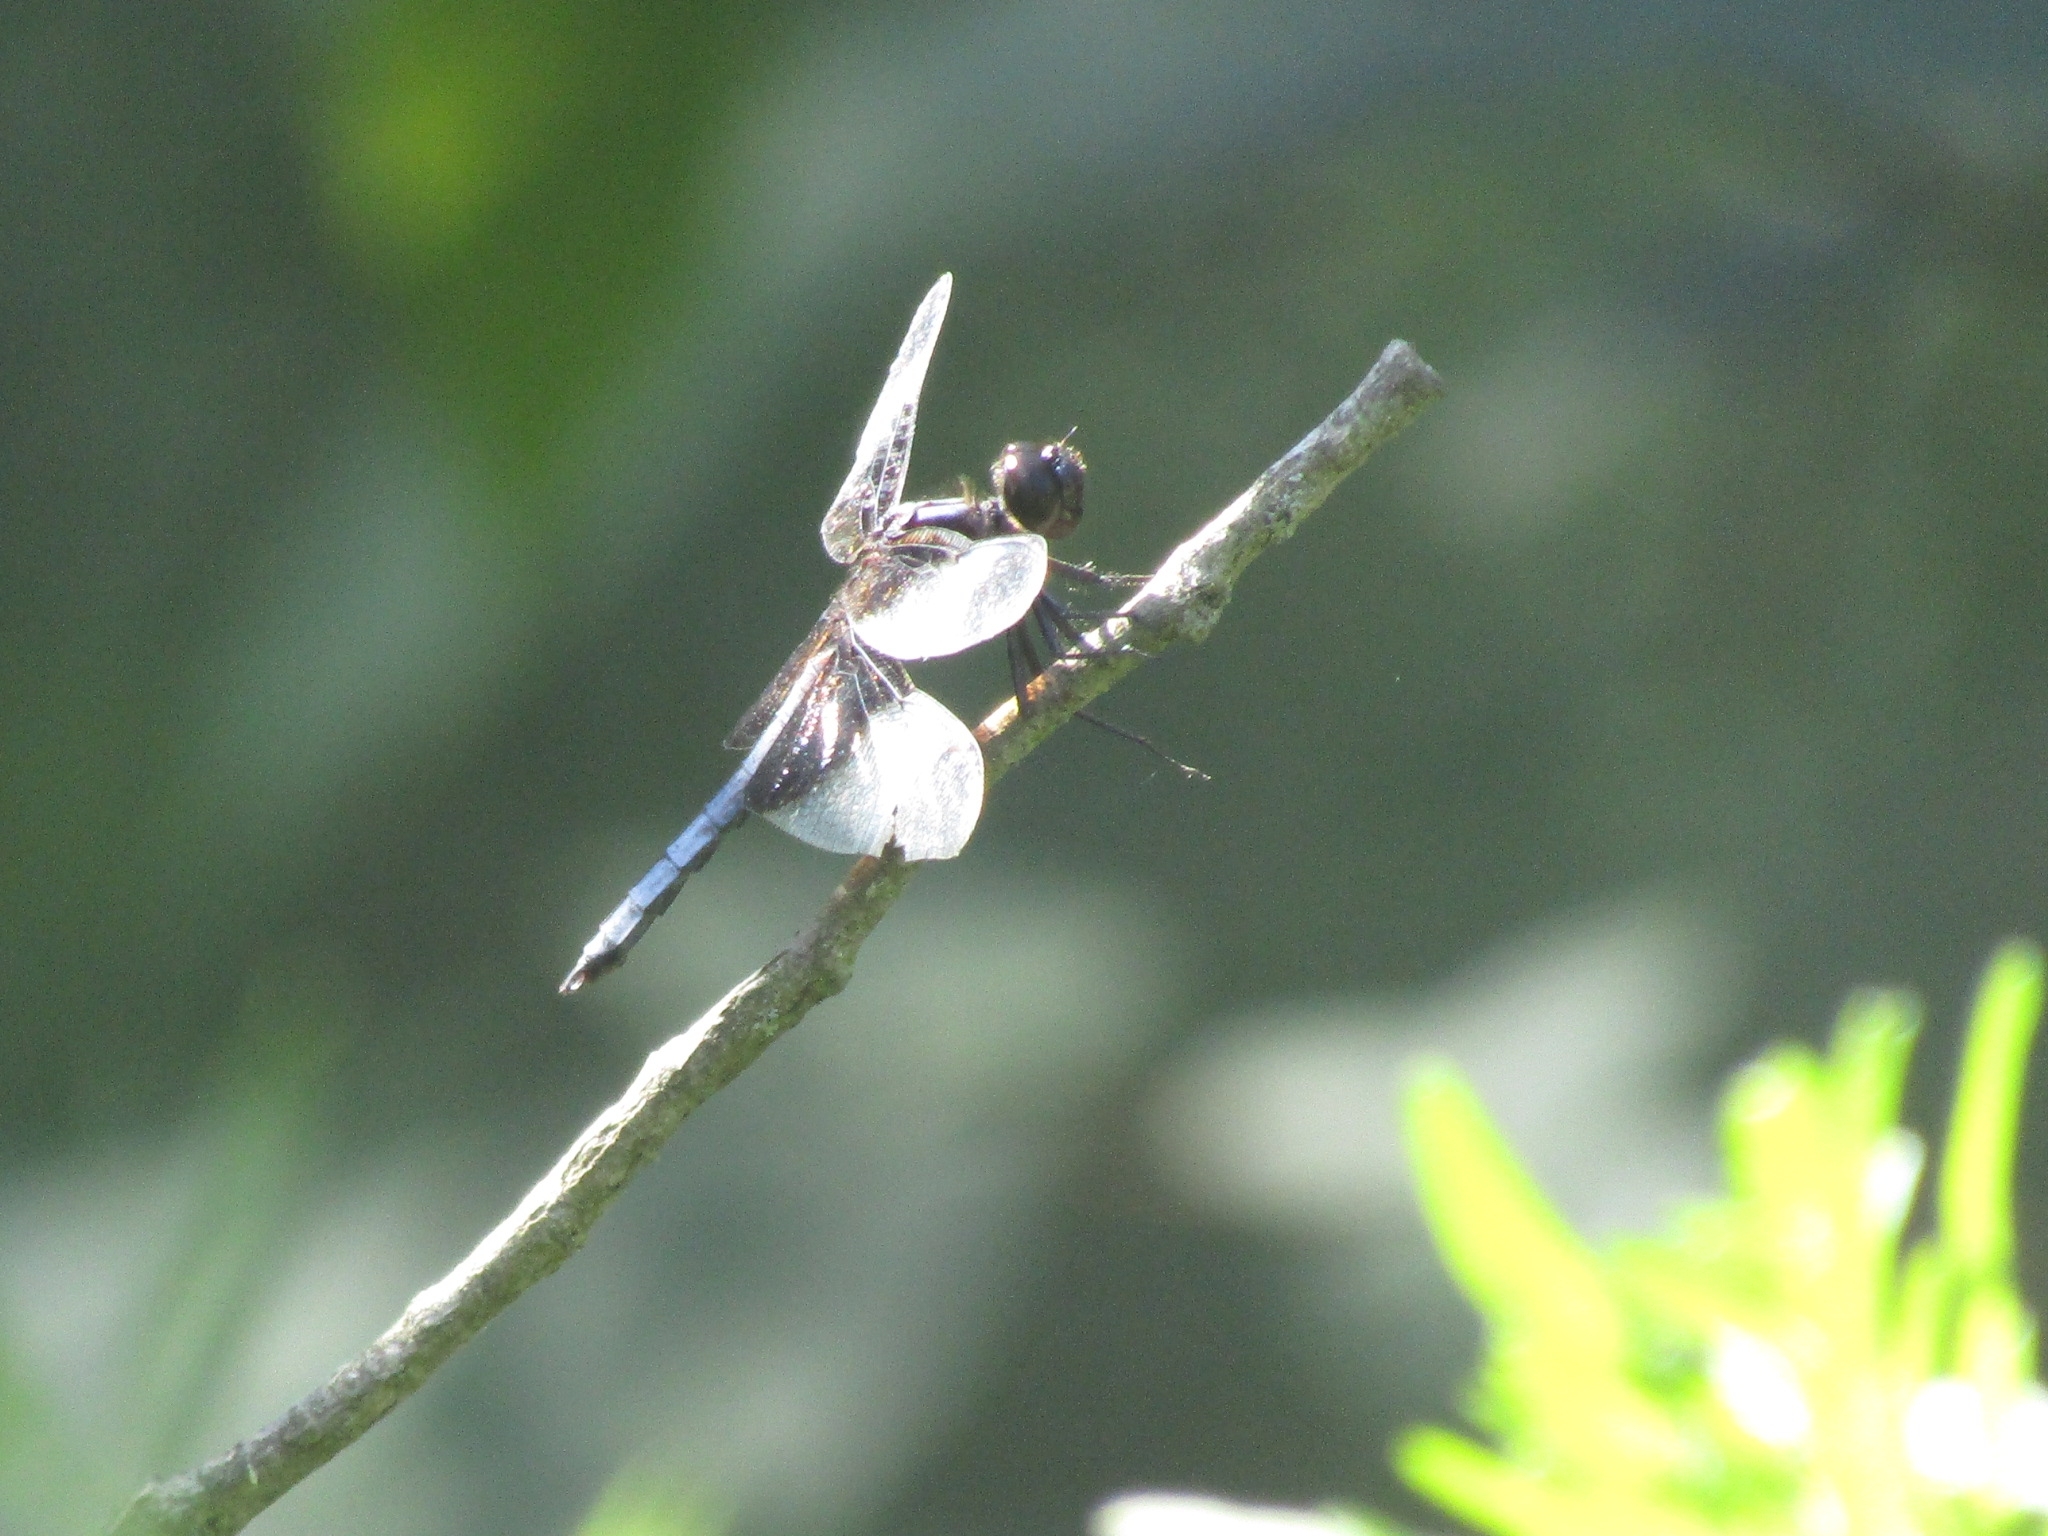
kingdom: Animalia
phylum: Arthropoda
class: Insecta
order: Odonata
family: Libellulidae
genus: Libellula
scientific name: Libellula luctuosa
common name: Widow skimmer
